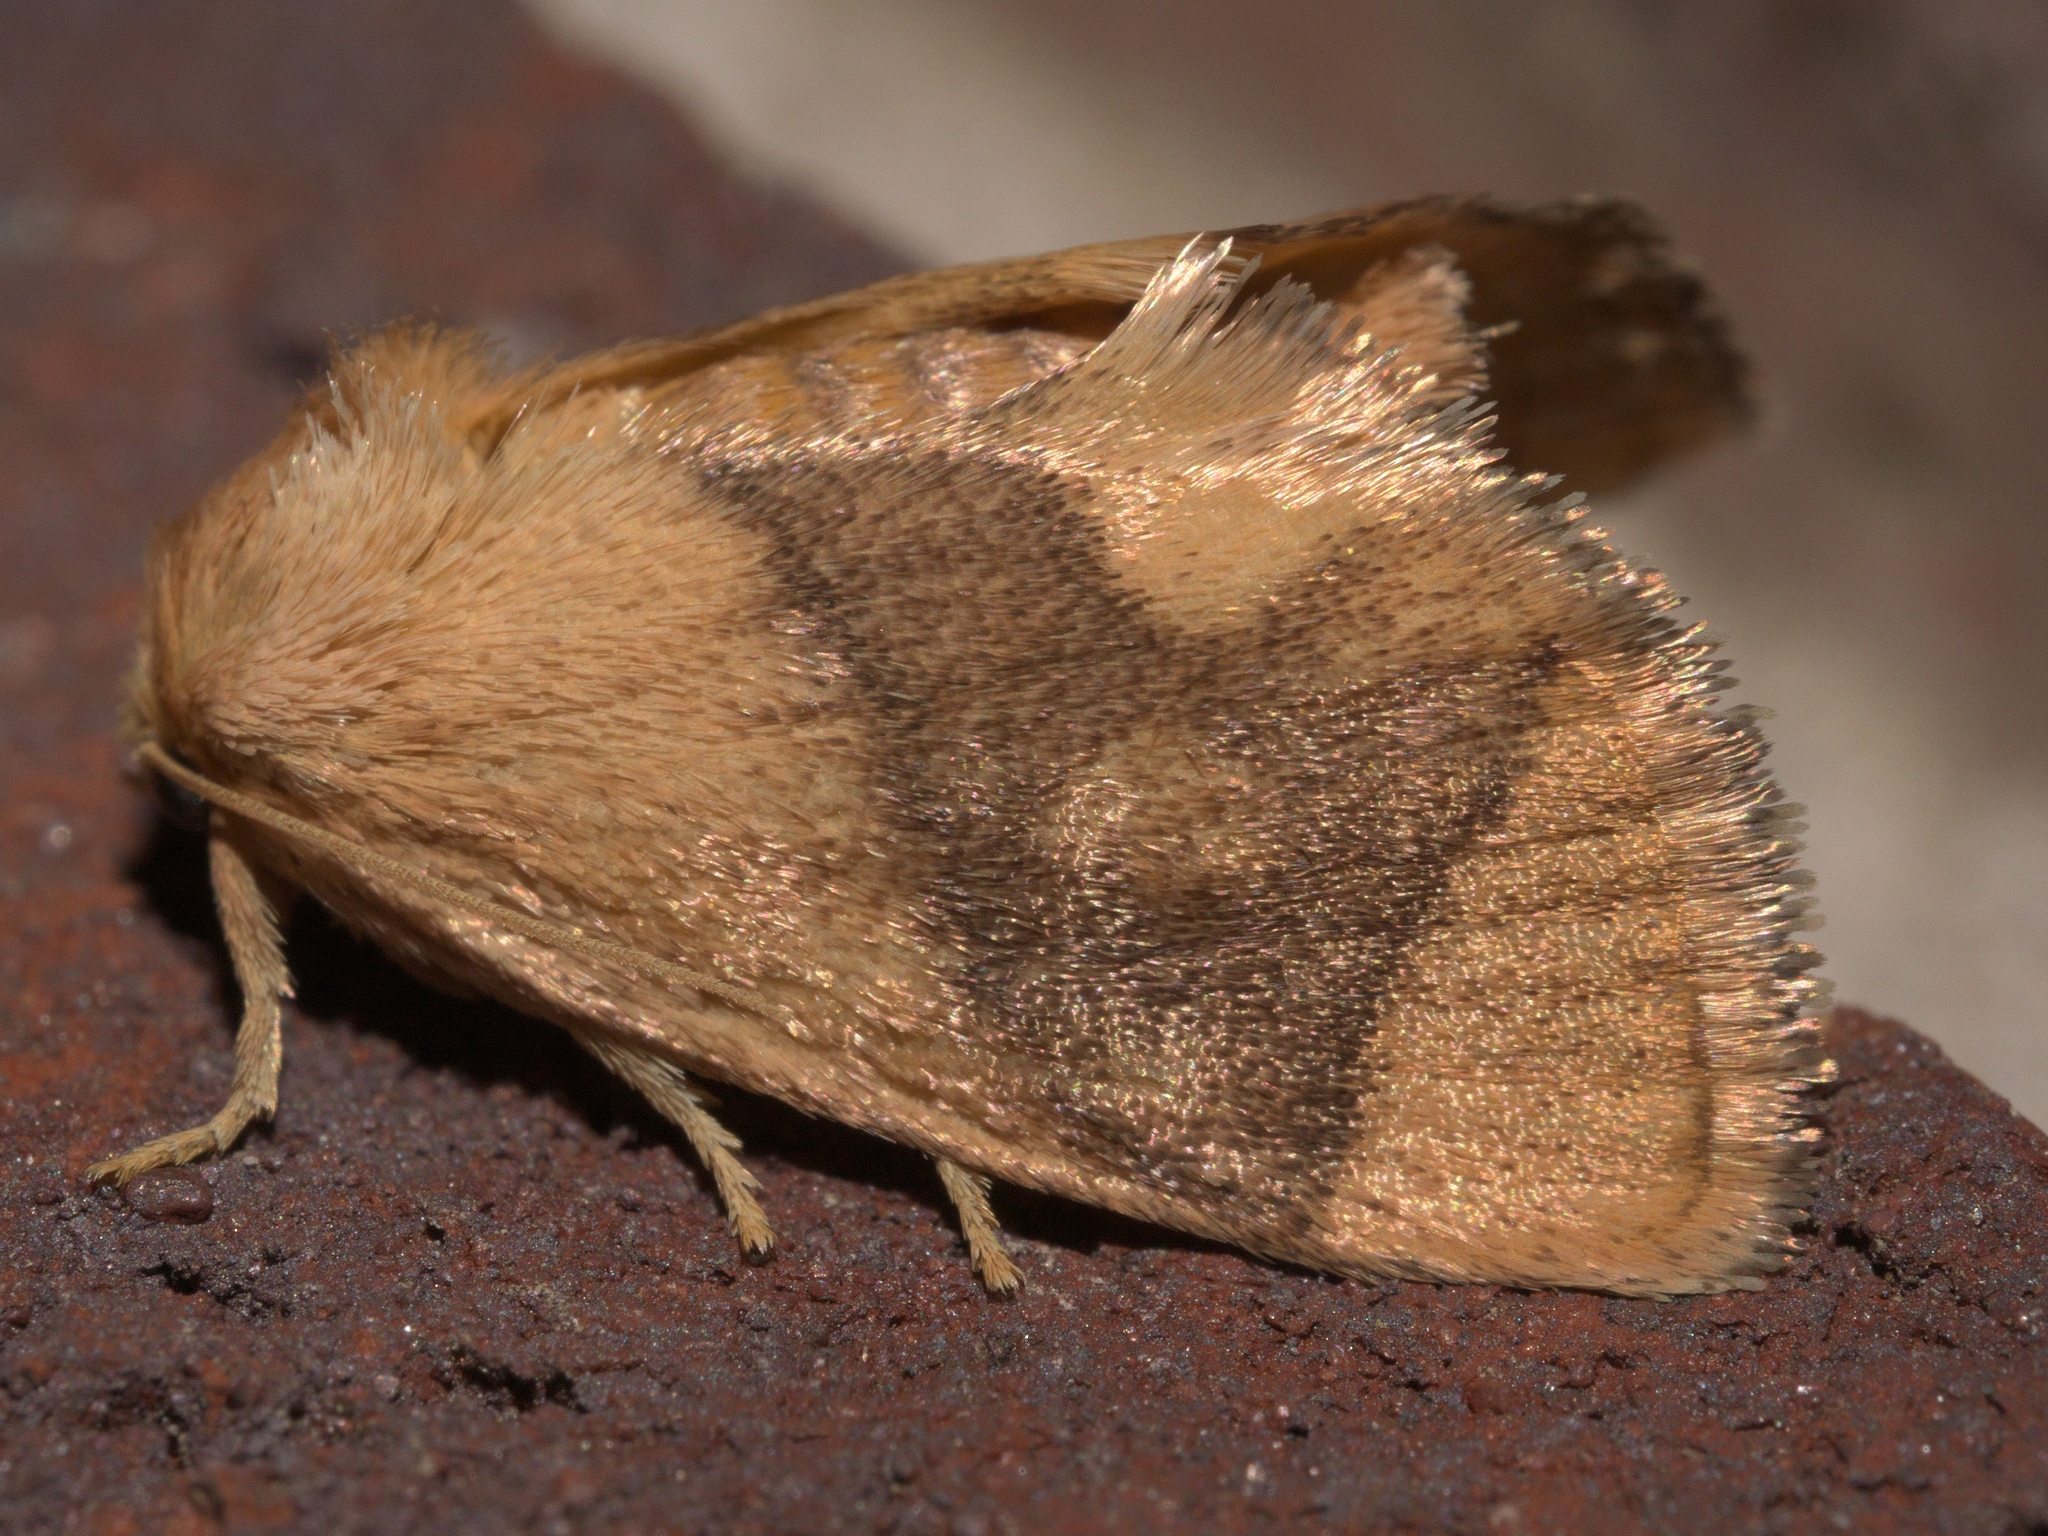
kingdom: Animalia
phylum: Arthropoda
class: Insecta
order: Lepidoptera
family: Limacodidae
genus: Apoda
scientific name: Apoda y-inversa
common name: Yellow-collared slug moth
